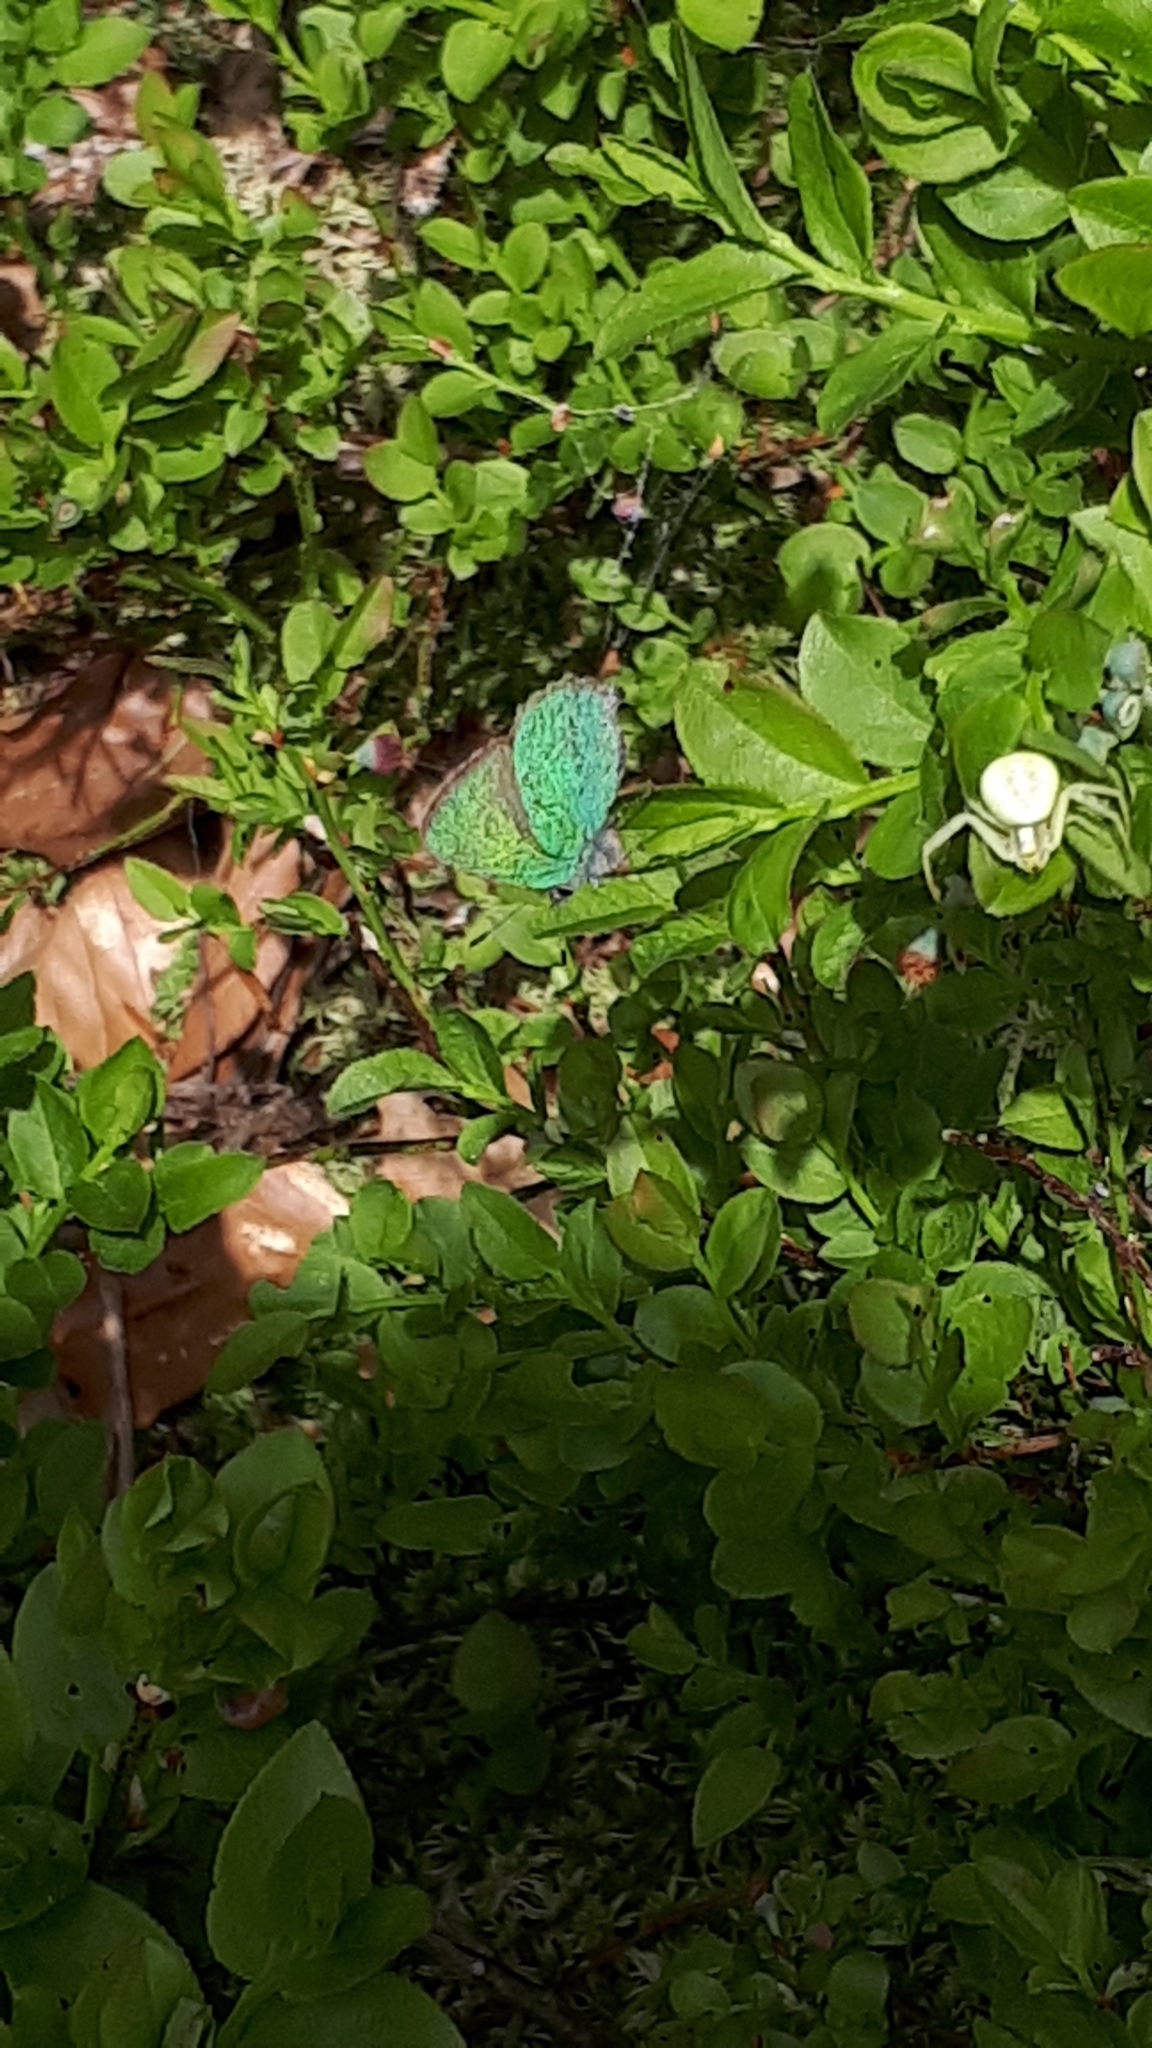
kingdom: Animalia
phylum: Arthropoda
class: Arachnida
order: Araneae
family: Thomisidae
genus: Misumena
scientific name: Misumena vatia
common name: Goldenrod crab spider
